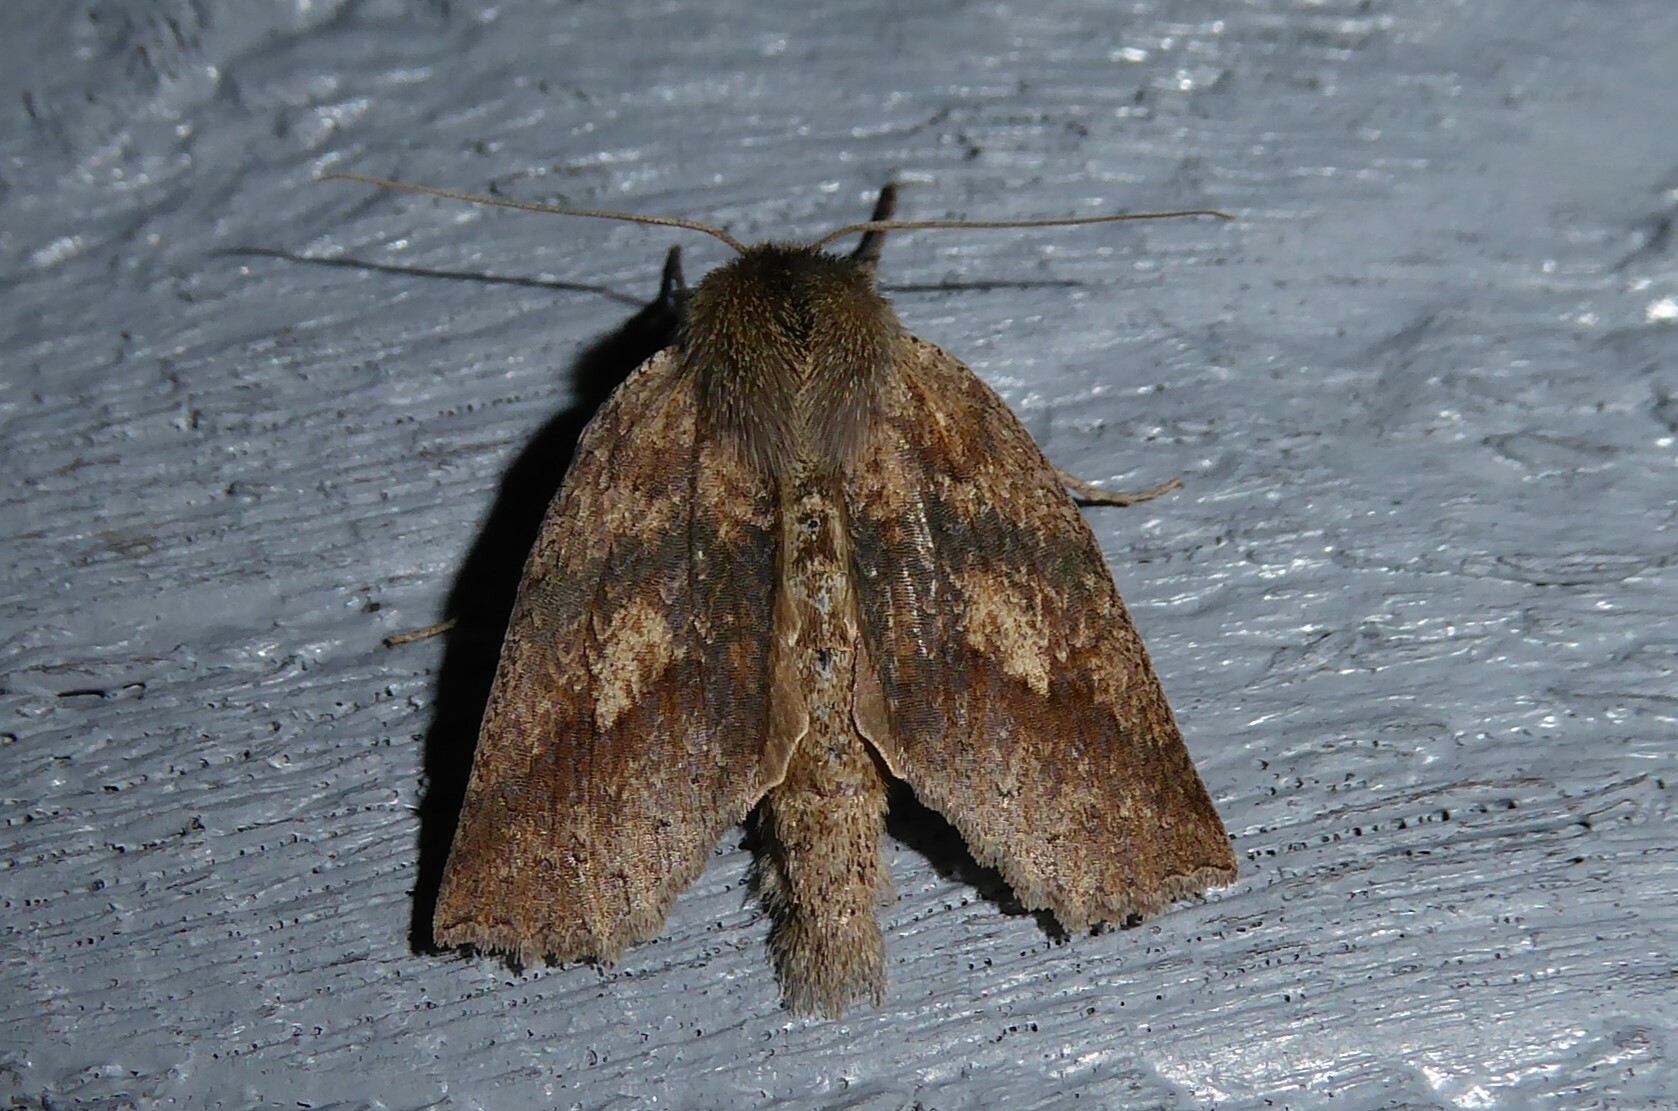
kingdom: Animalia
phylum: Arthropoda
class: Insecta
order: Lepidoptera
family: Geometridae
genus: Declana
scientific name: Declana leptomera
